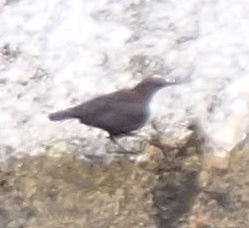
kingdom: Animalia
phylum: Chordata
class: Aves
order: Passeriformes
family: Cinclidae
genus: Cinclus
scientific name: Cinclus cinclus
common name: White-throated dipper
